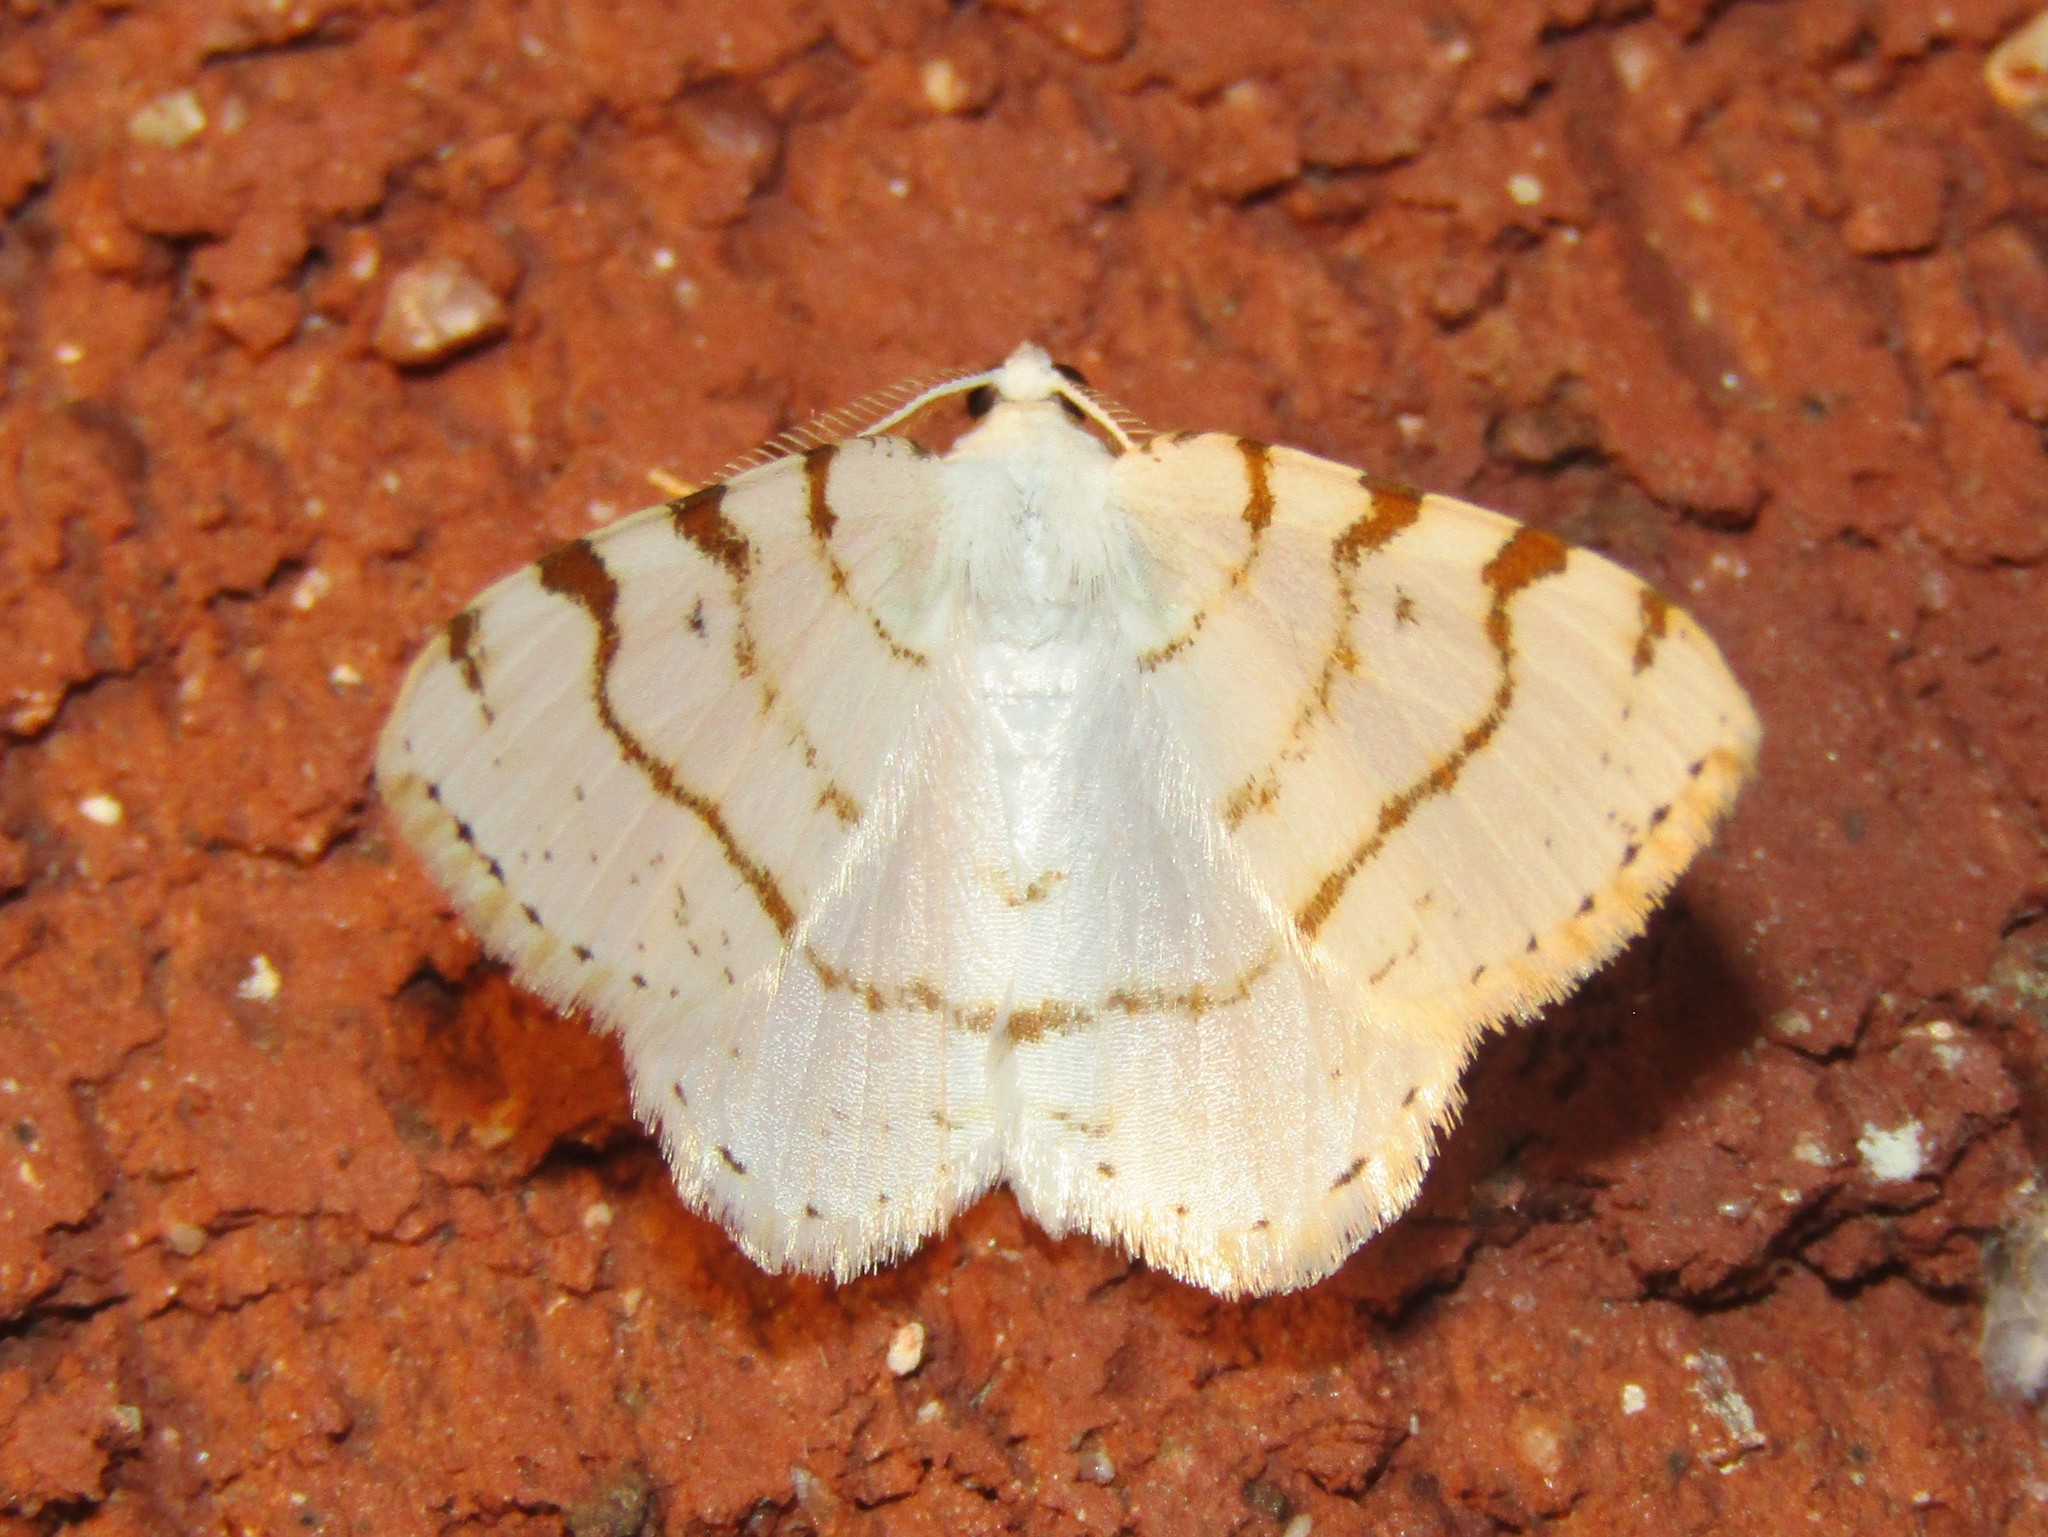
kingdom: Animalia
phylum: Arthropoda
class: Insecta
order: Lepidoptera
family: Geometridae
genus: Macaria
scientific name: Macaria pustularia
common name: Lesser maple spanworm moth
